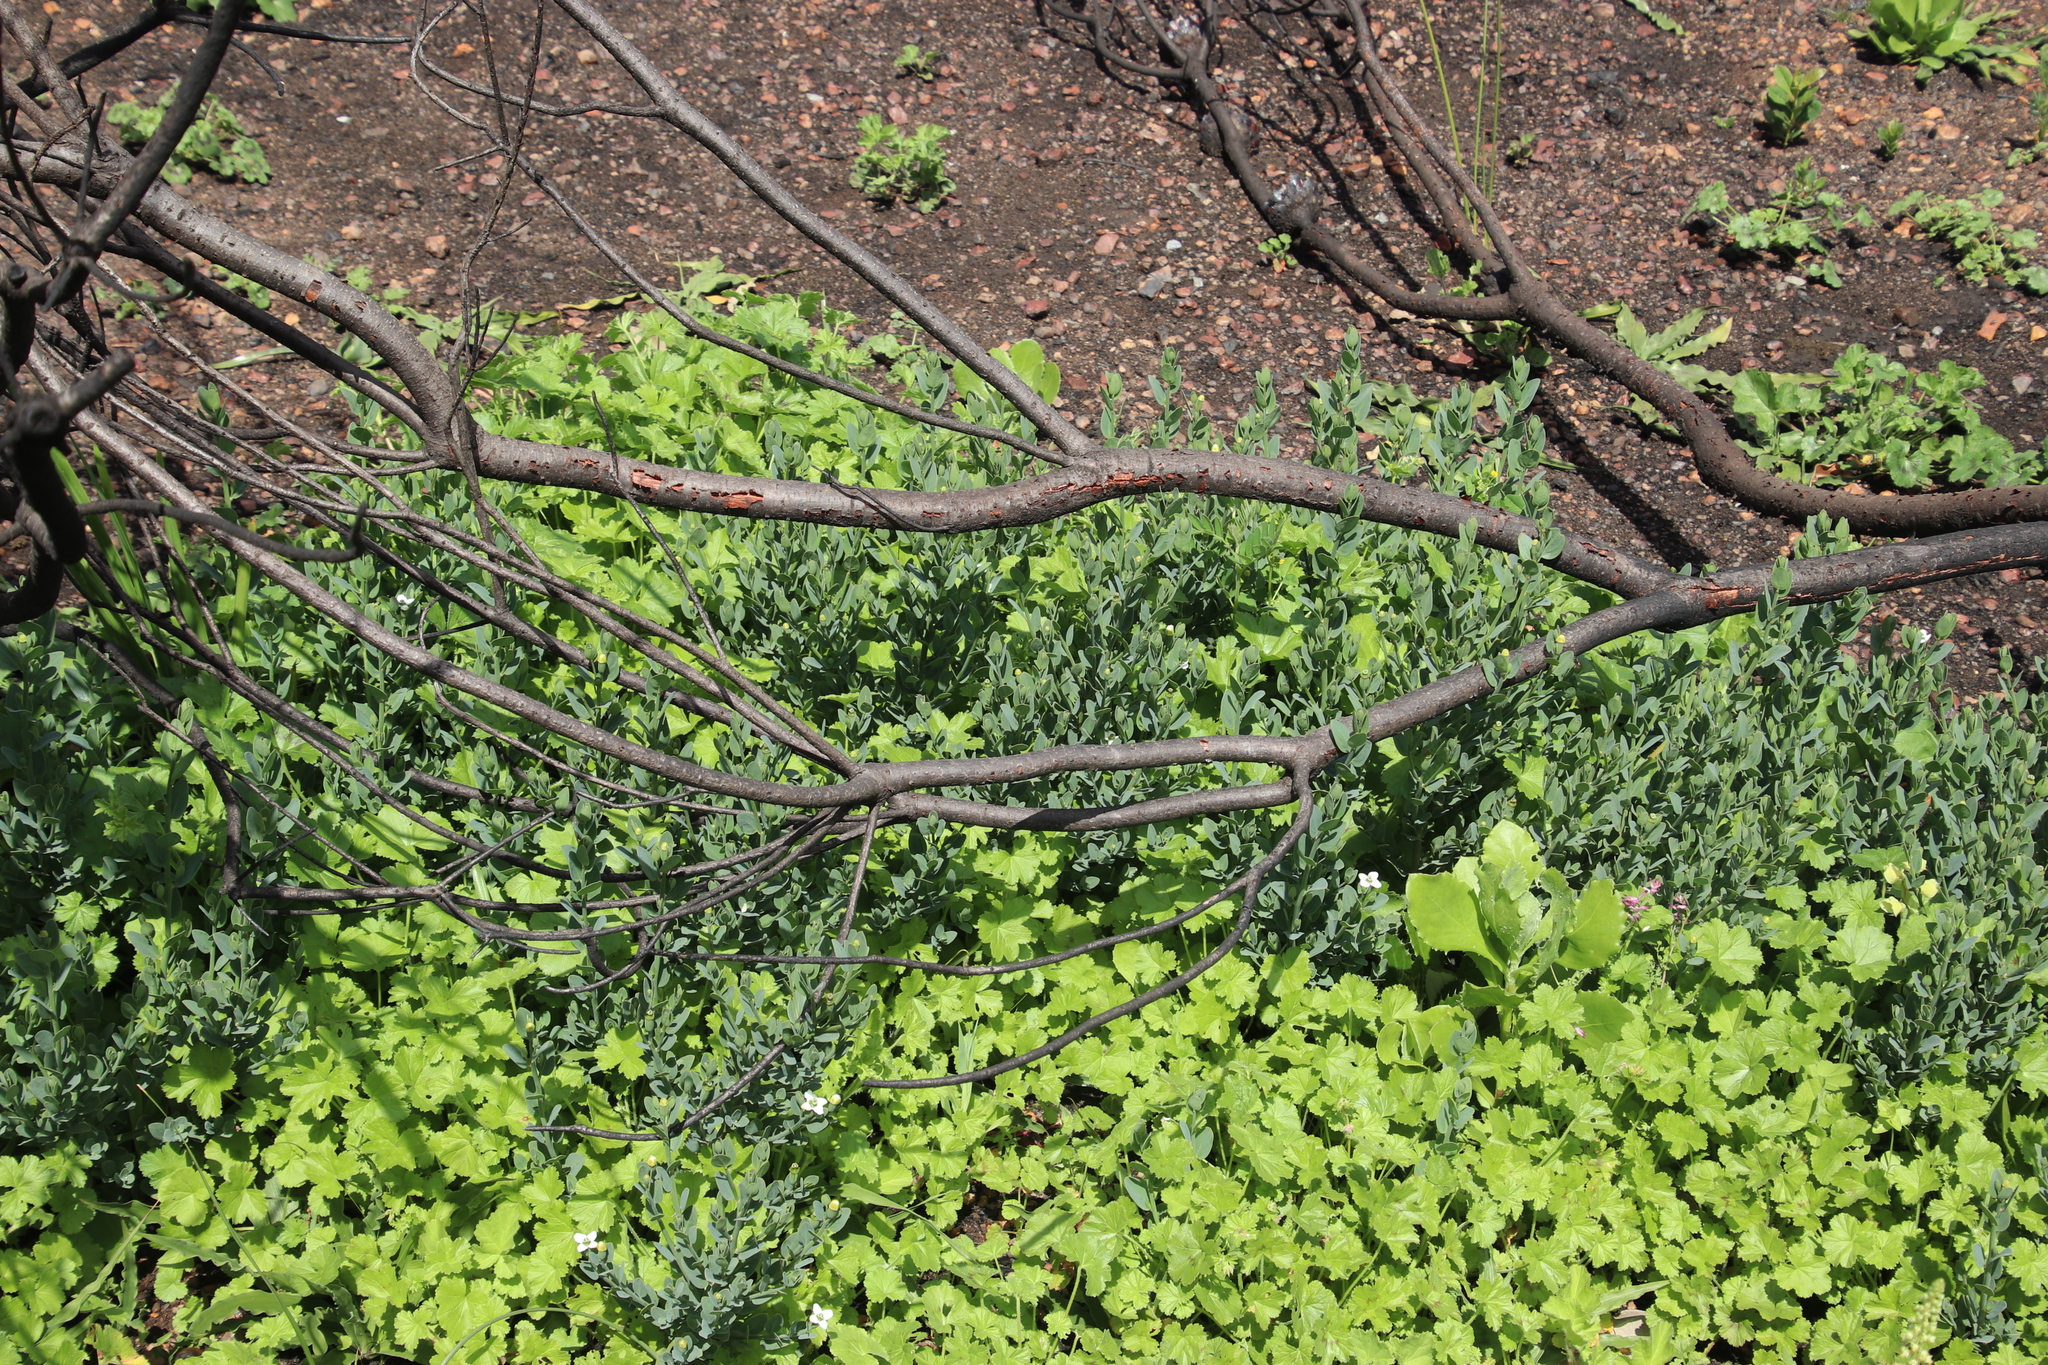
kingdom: Plantae
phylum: Tracheophyta
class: Magnoliopsida
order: Solanales
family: Montiniaceae
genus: Montinia
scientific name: Montinia caryophyllacea
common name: Wild clove-bush
